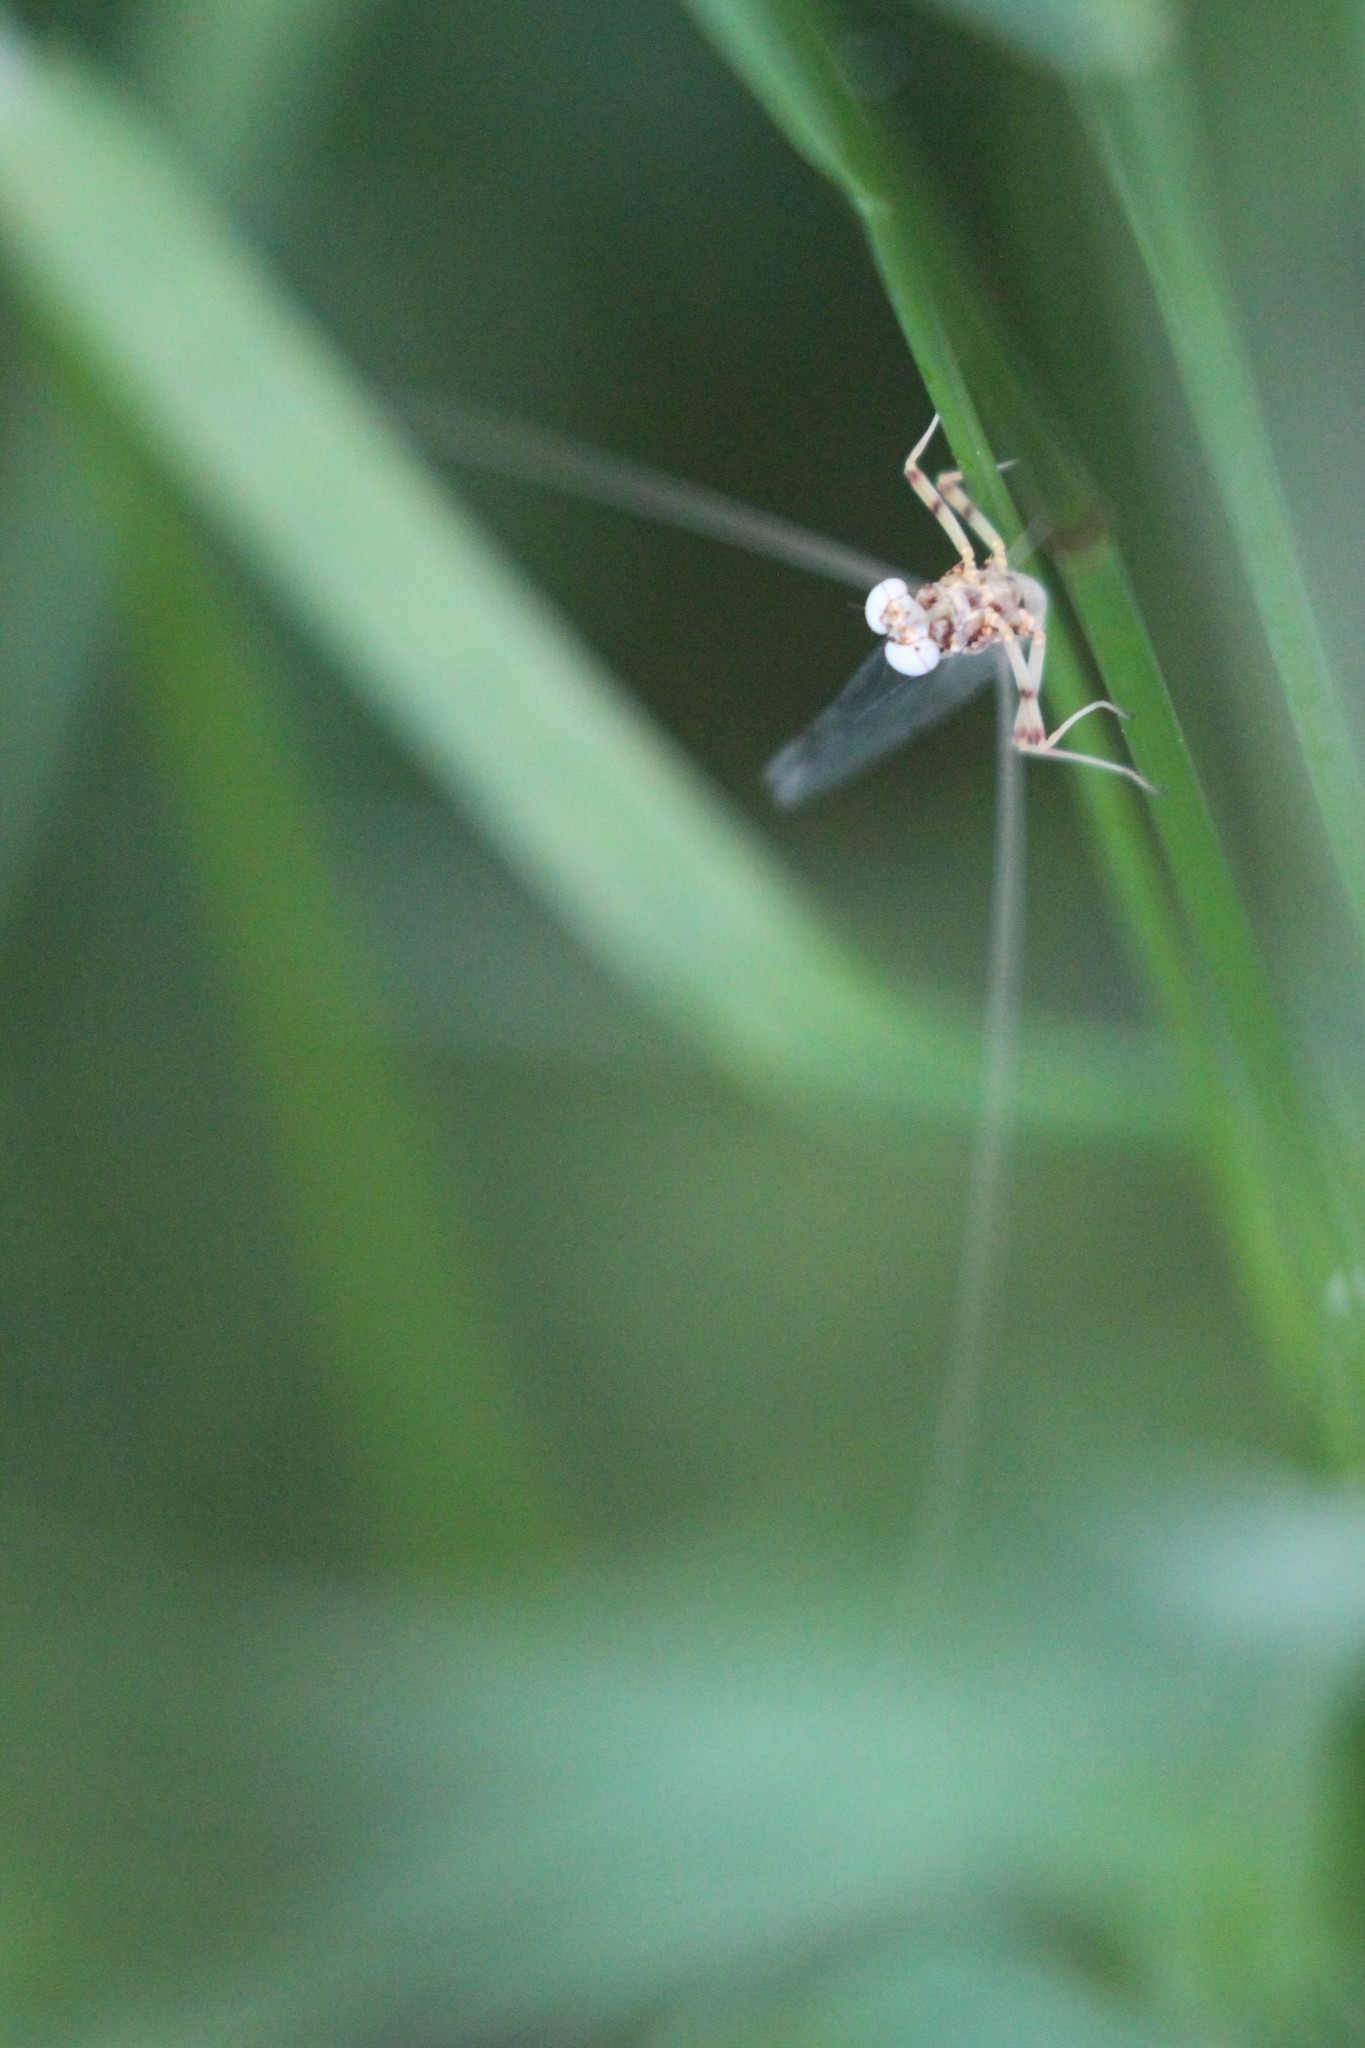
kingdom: Animalia
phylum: Arthropoda
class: Insecta
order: Ephemeroptera
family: Heptageniidae
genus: Stenonema
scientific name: Stenonema femoratum
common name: Dark cahill
